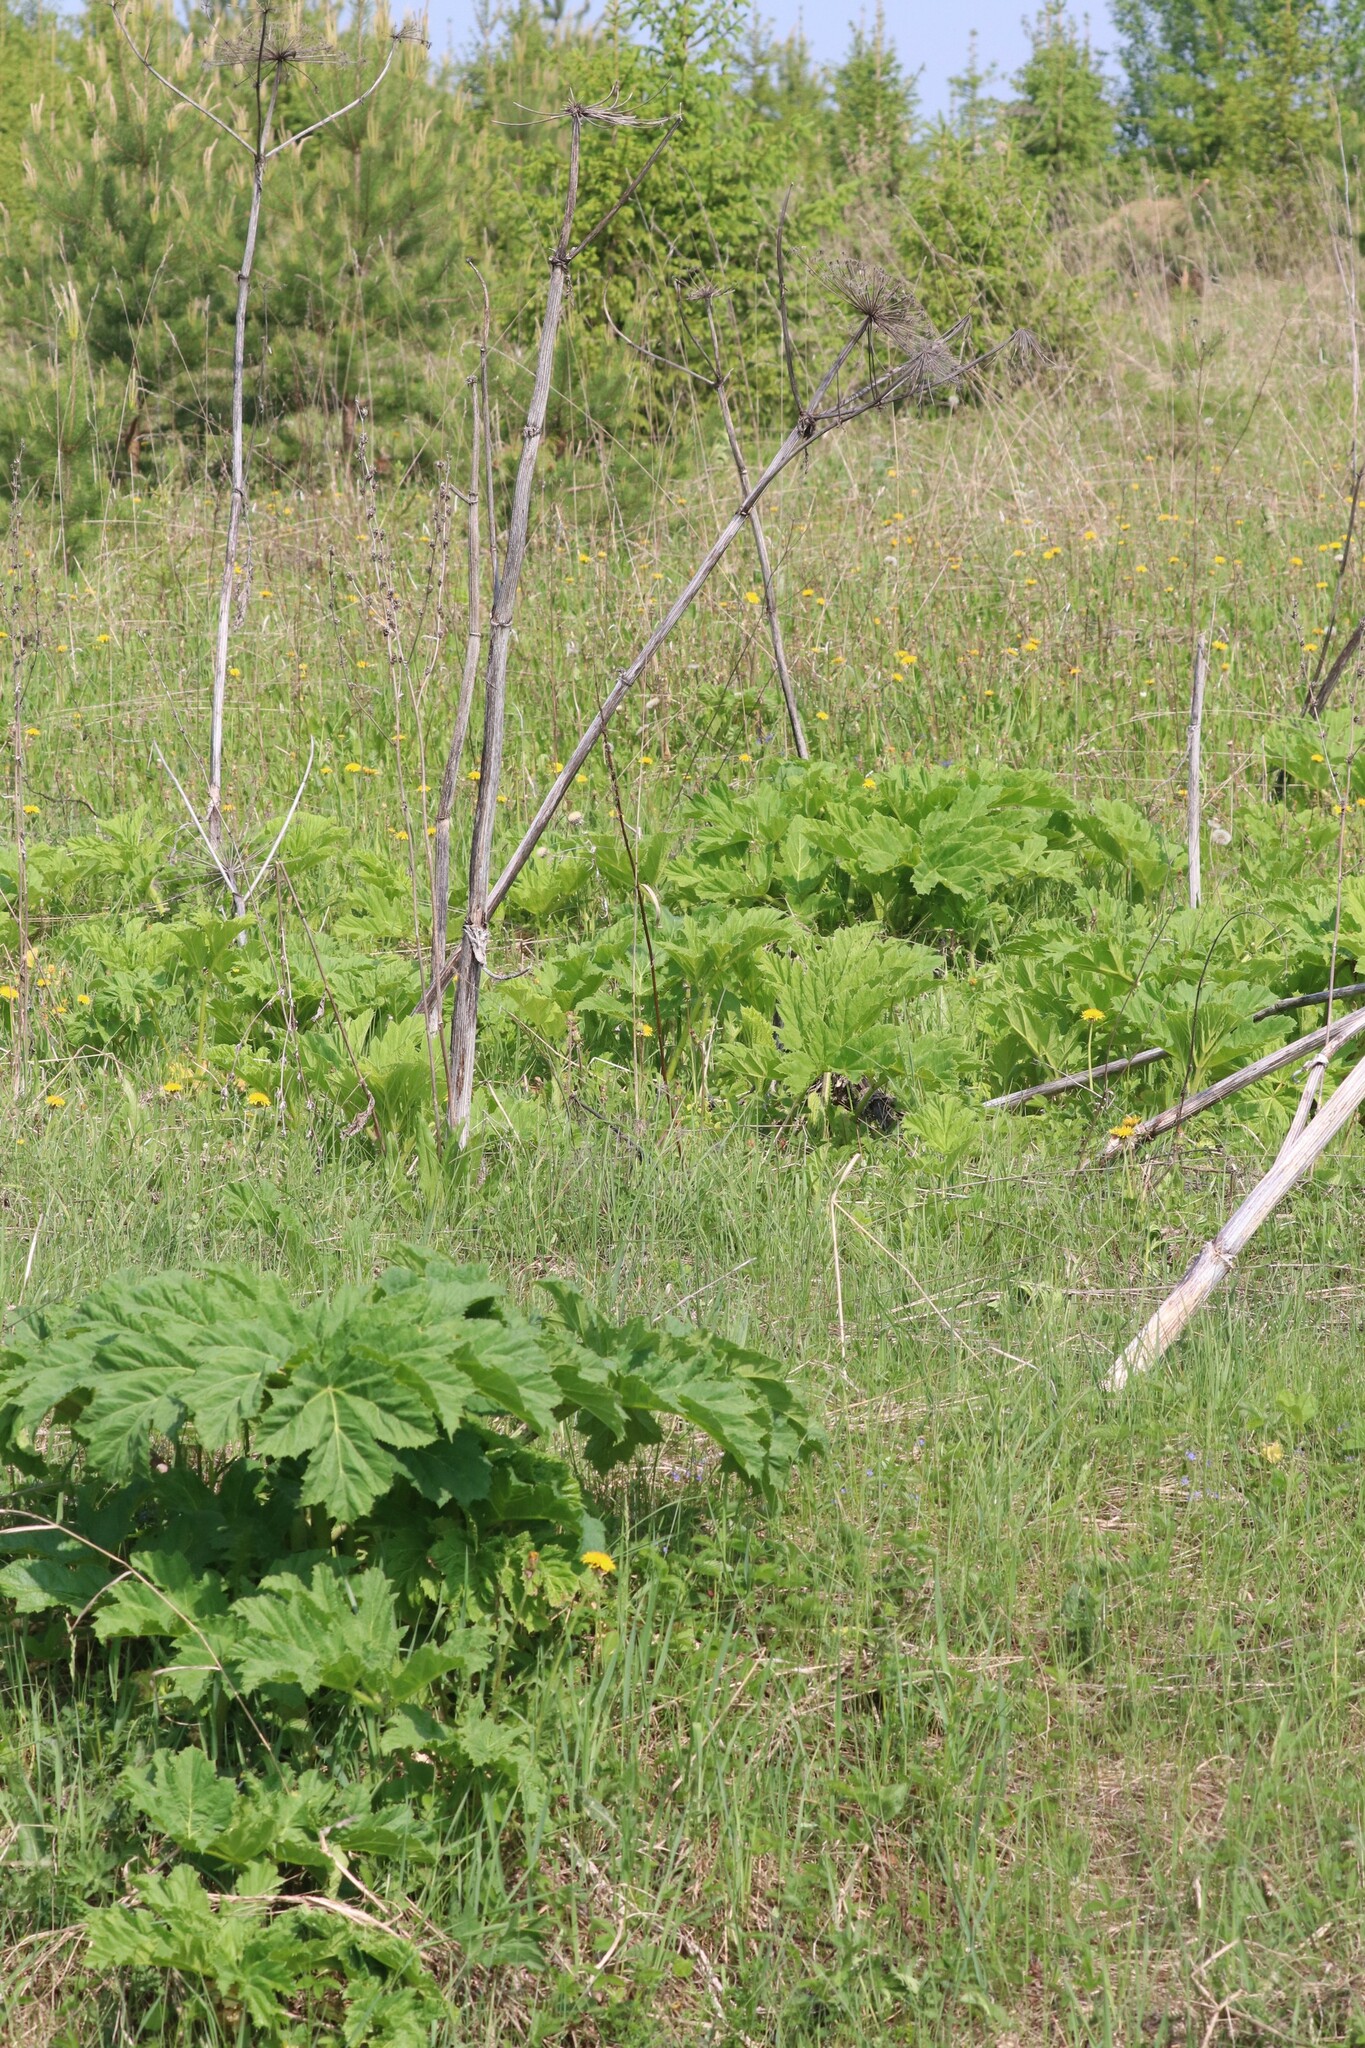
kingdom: Plantae
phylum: Tracheophyta
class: Magnoliopsida
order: Apiales
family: Apiaceae
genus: Heracleum
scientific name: Heracleum sosnowskyi
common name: Sosnowsky's hogweed
